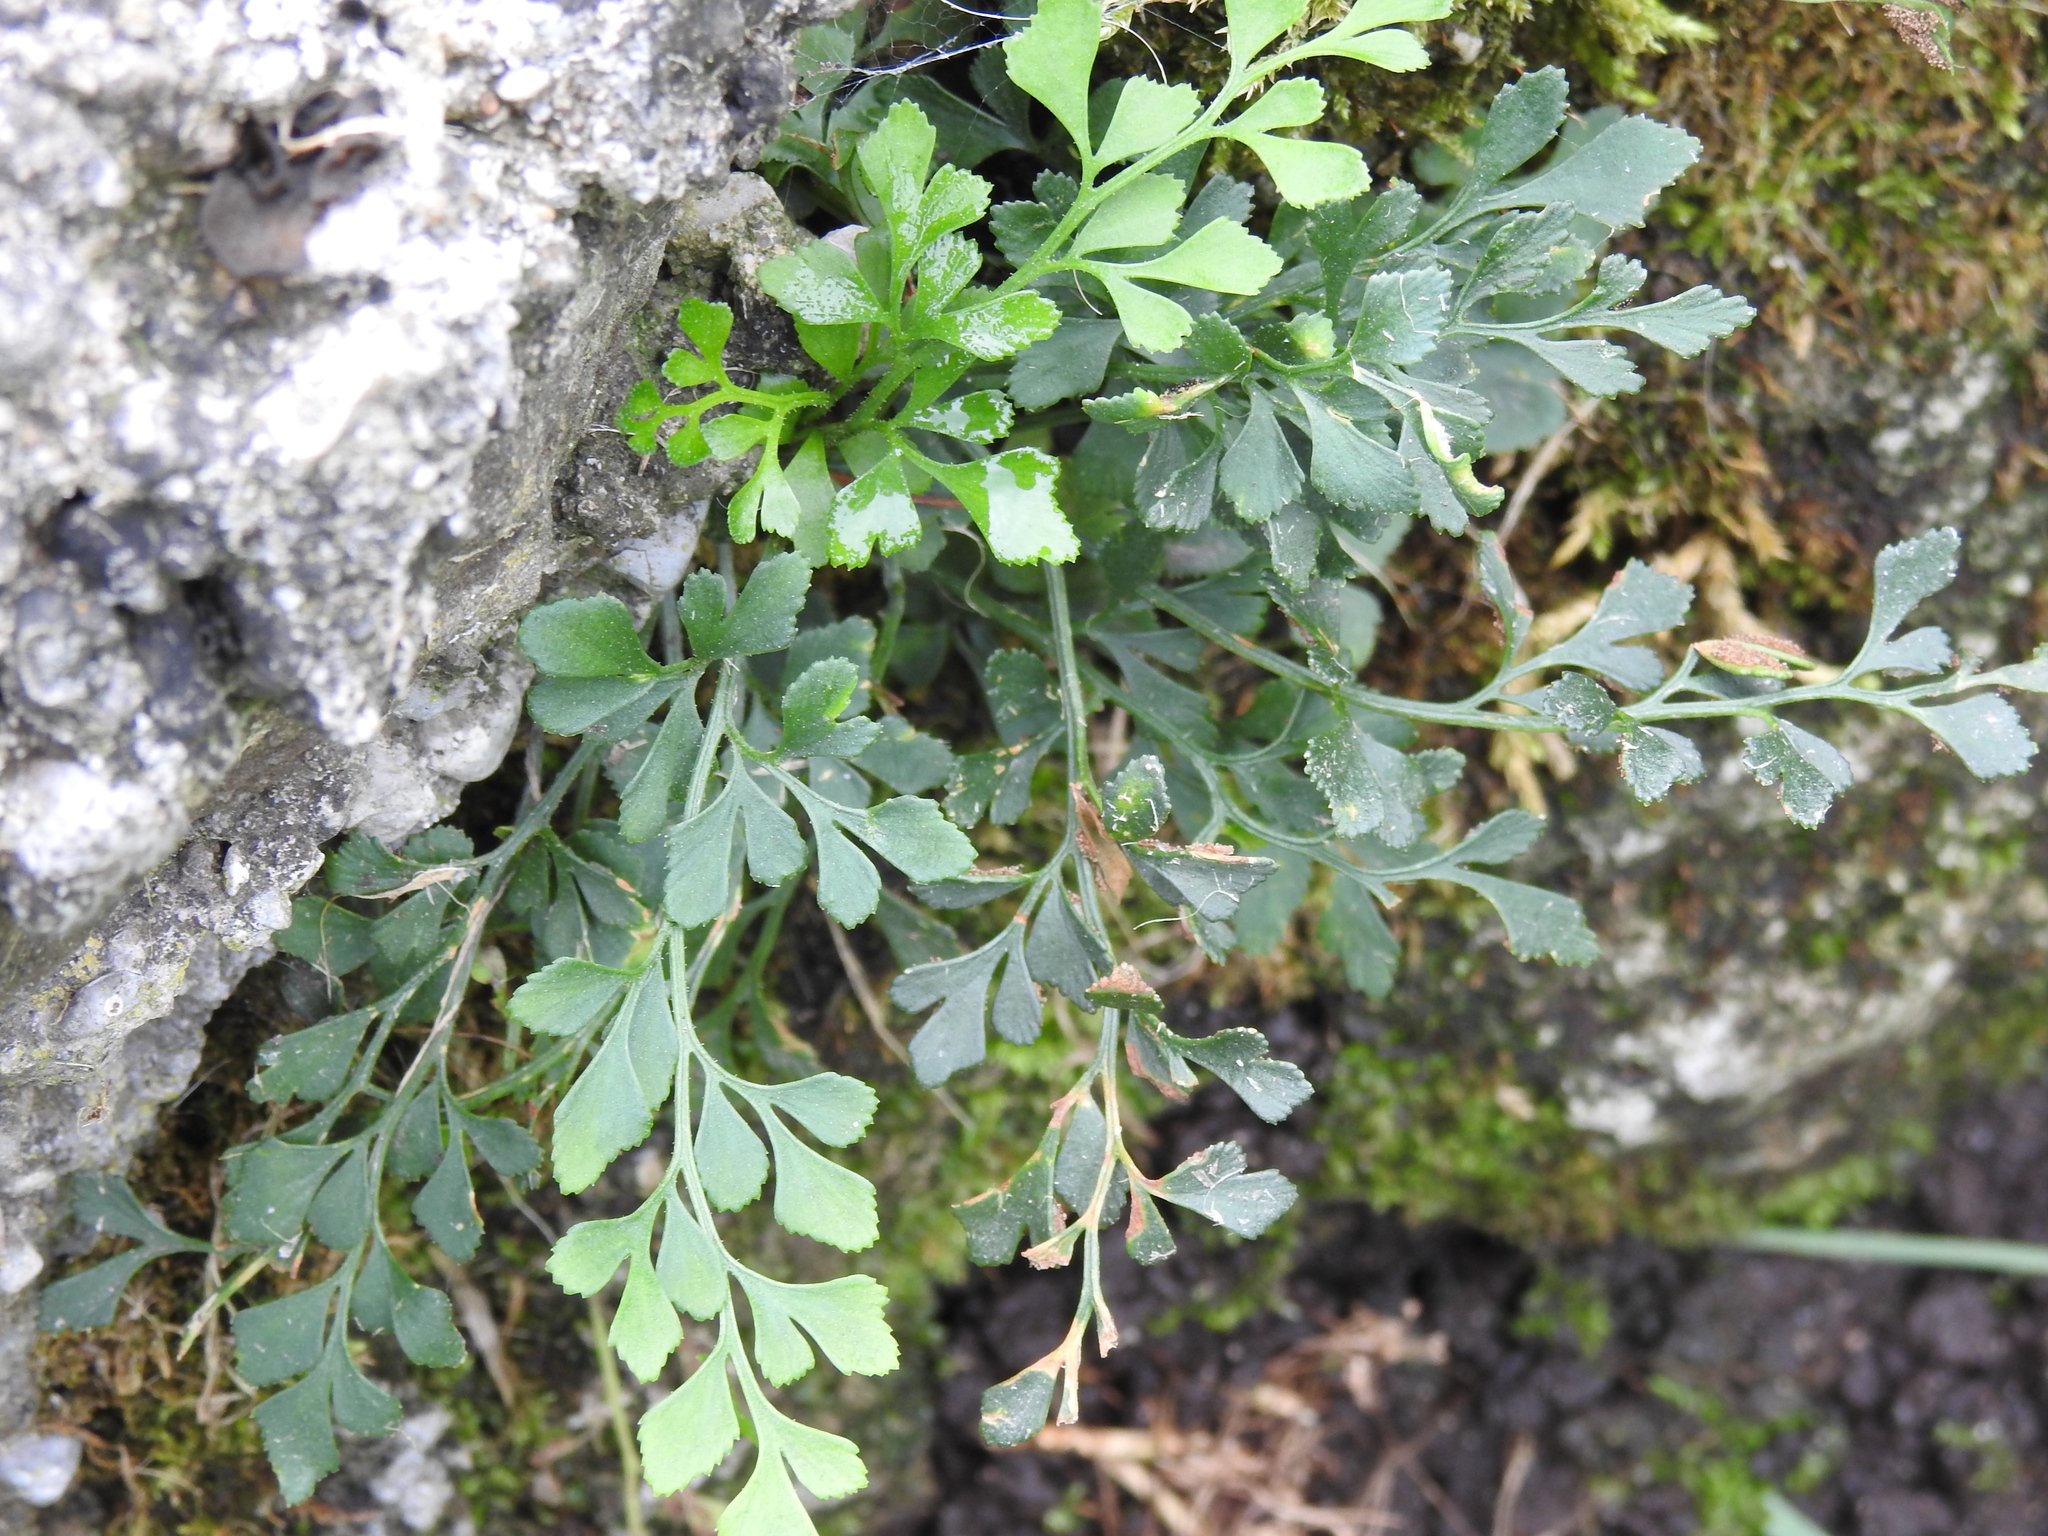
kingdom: Plantae
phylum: Tracheophyta
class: Polypodiopsida
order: Polypodiales
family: Aspleniaceae
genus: Asplenium
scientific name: Asplenium ruta-muraria
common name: Wall-rue
